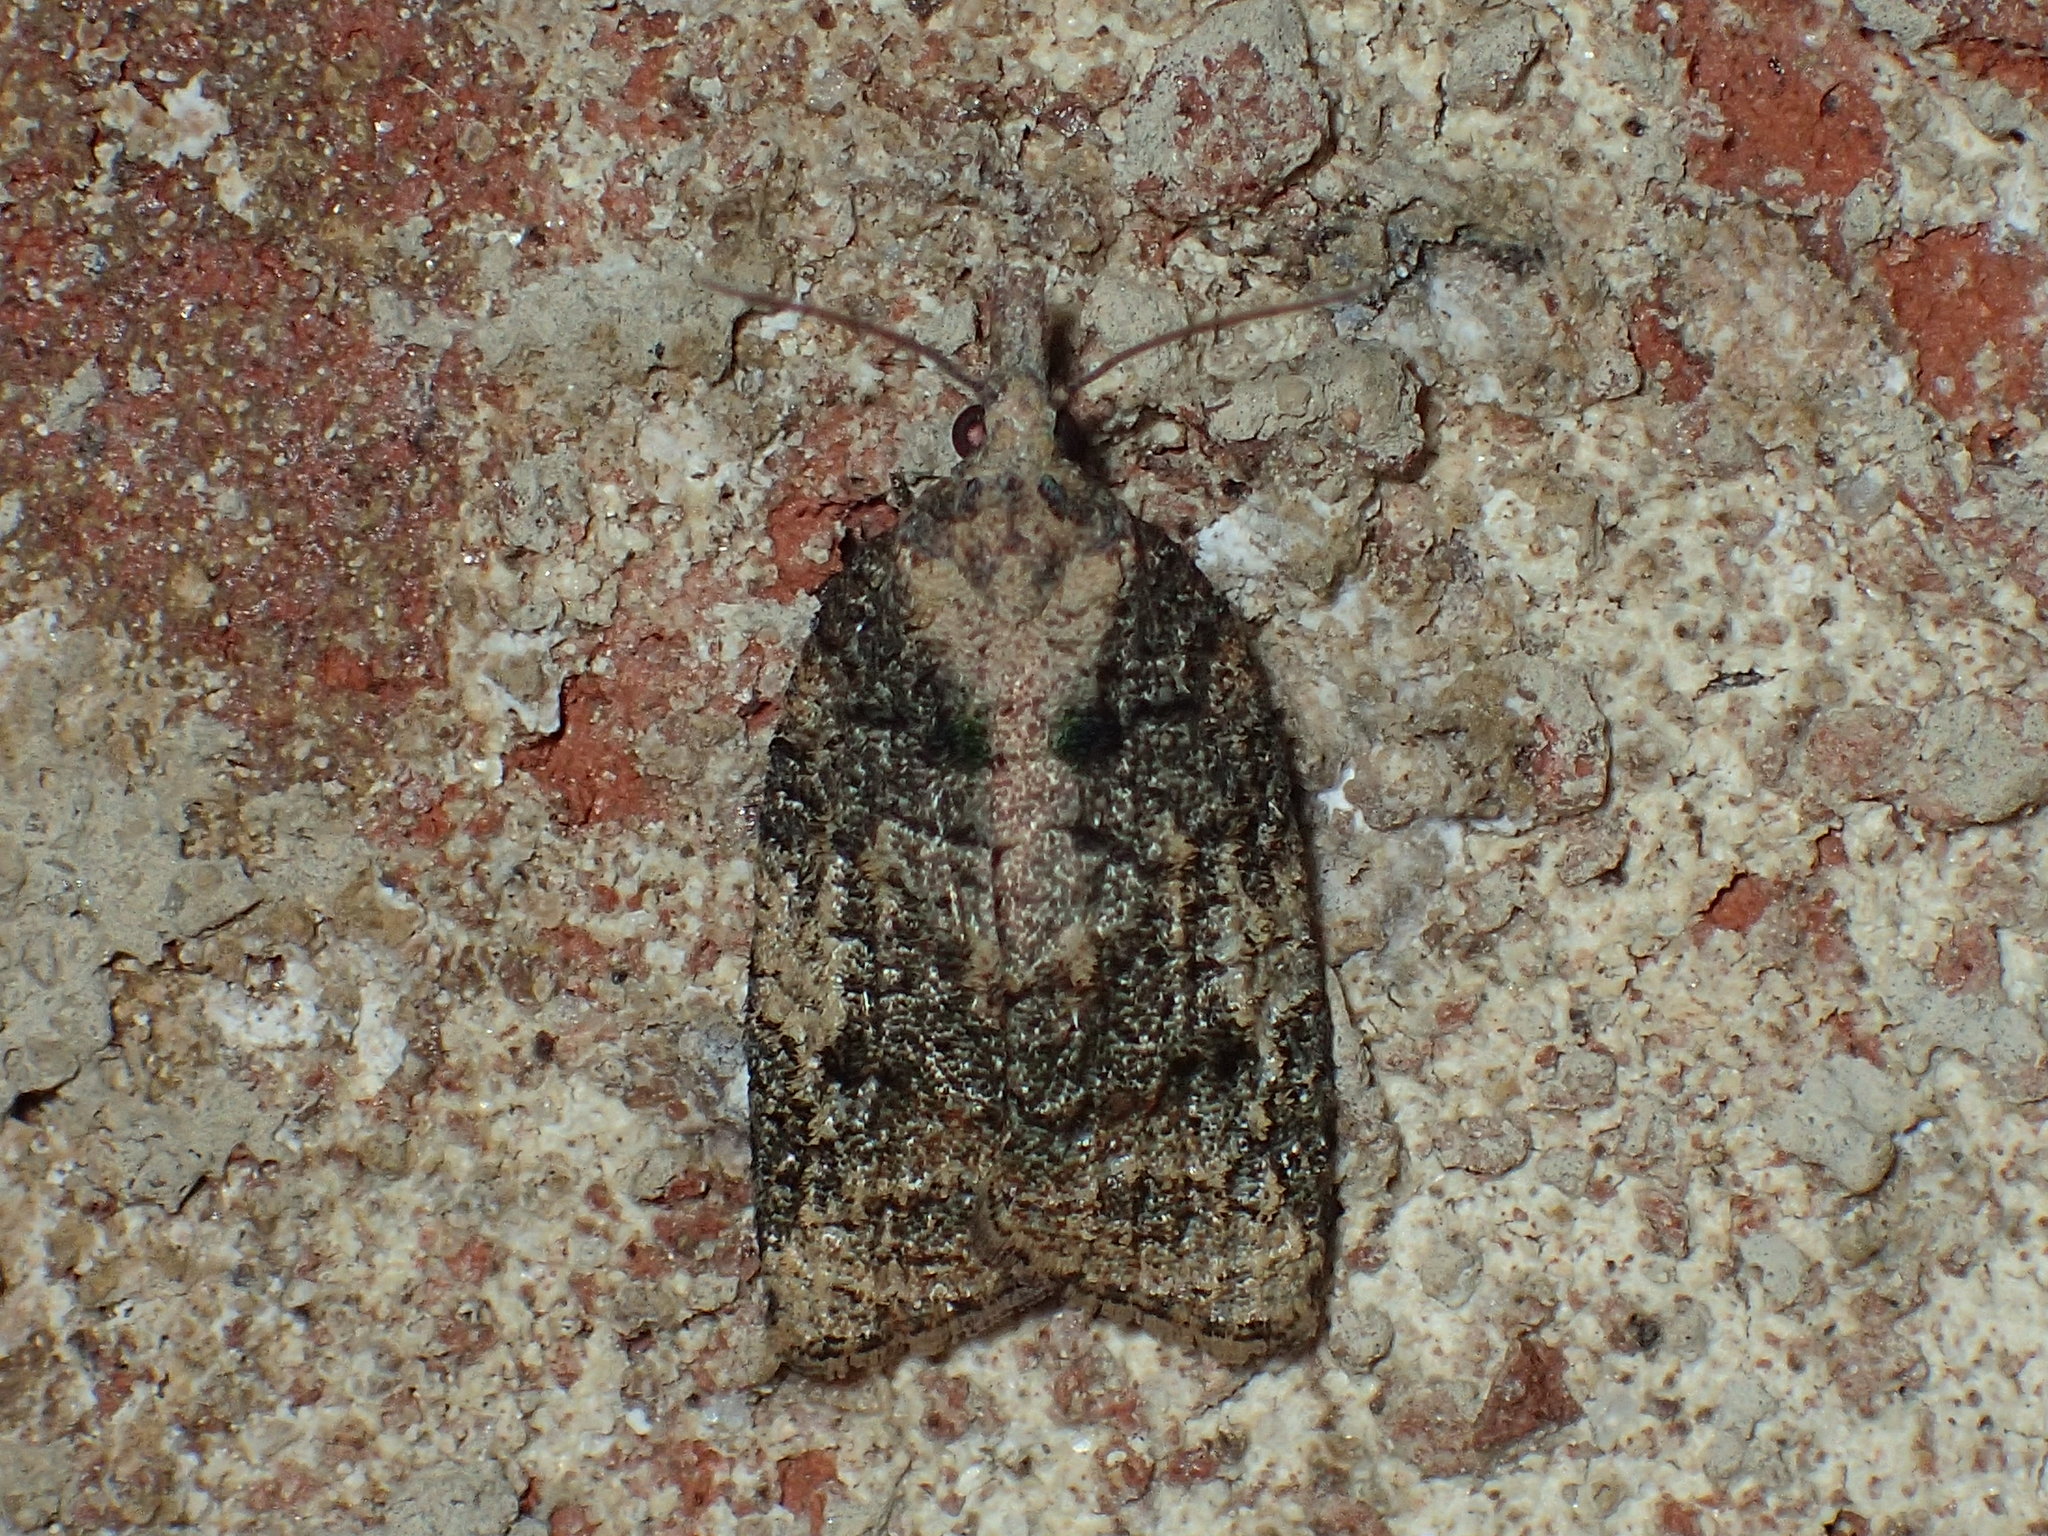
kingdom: Animalia
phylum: Arthropoda
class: Insecta
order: Lepidoptera
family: Tortricidae
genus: Platynota
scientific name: Platynota exasperatana
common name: Exasperating platynota moth
